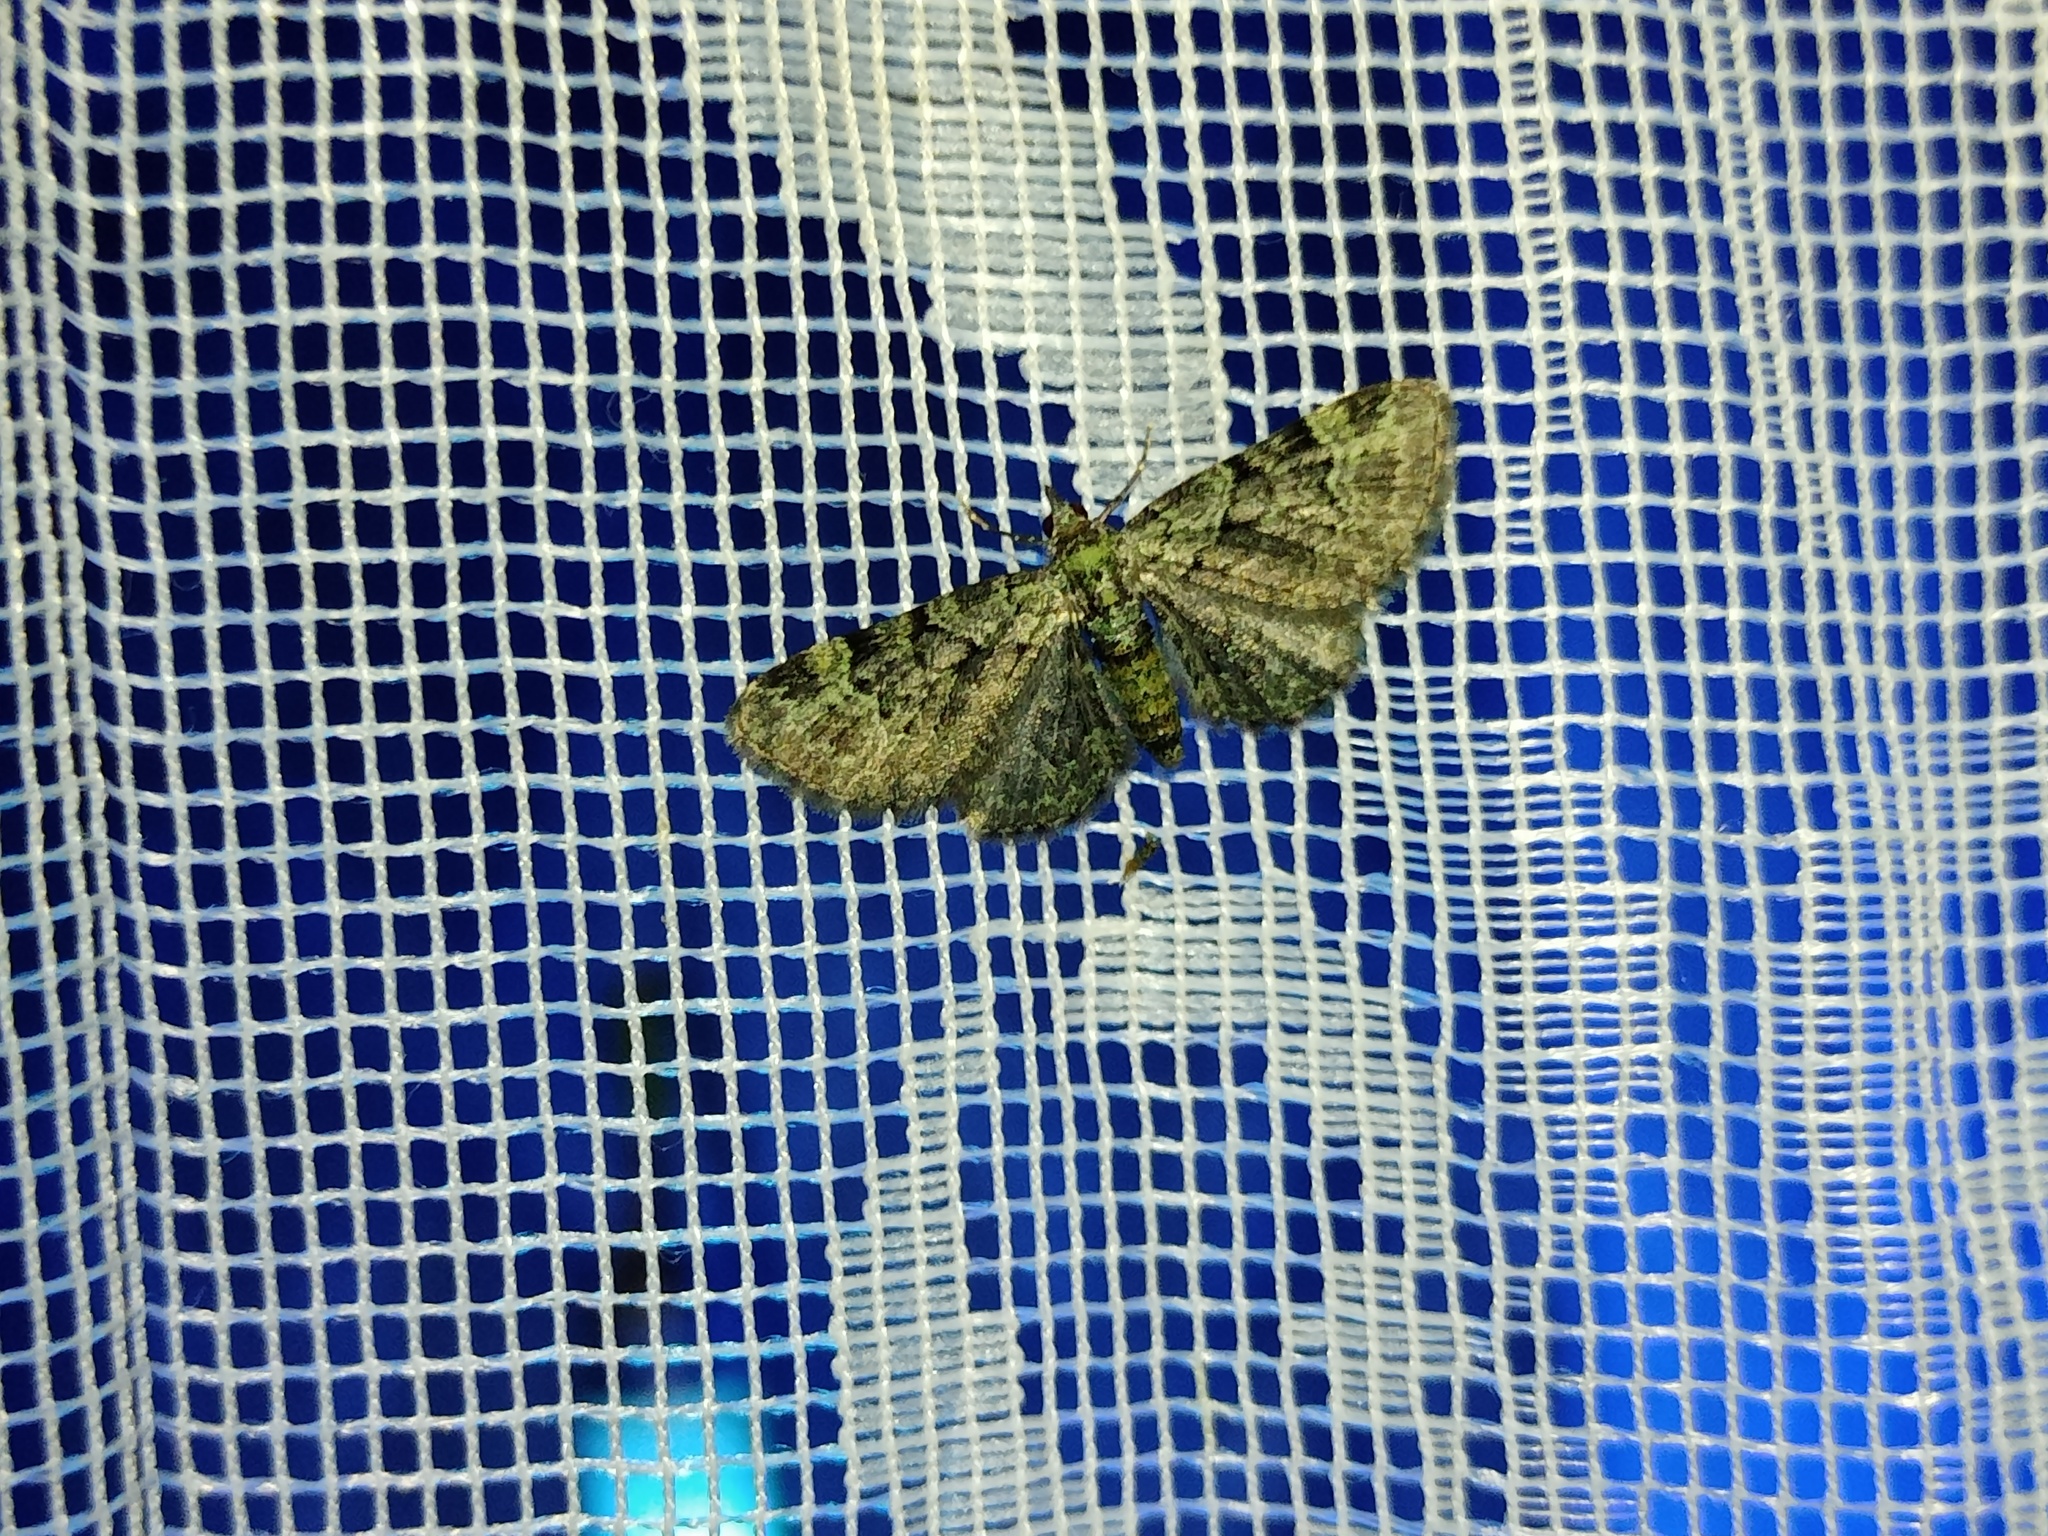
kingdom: Animalia
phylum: Arthropoda
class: Insecta
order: Lepidoptera
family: Geometridae
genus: Pasiphila
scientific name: Pasiphila rectangulata
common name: Green pug
